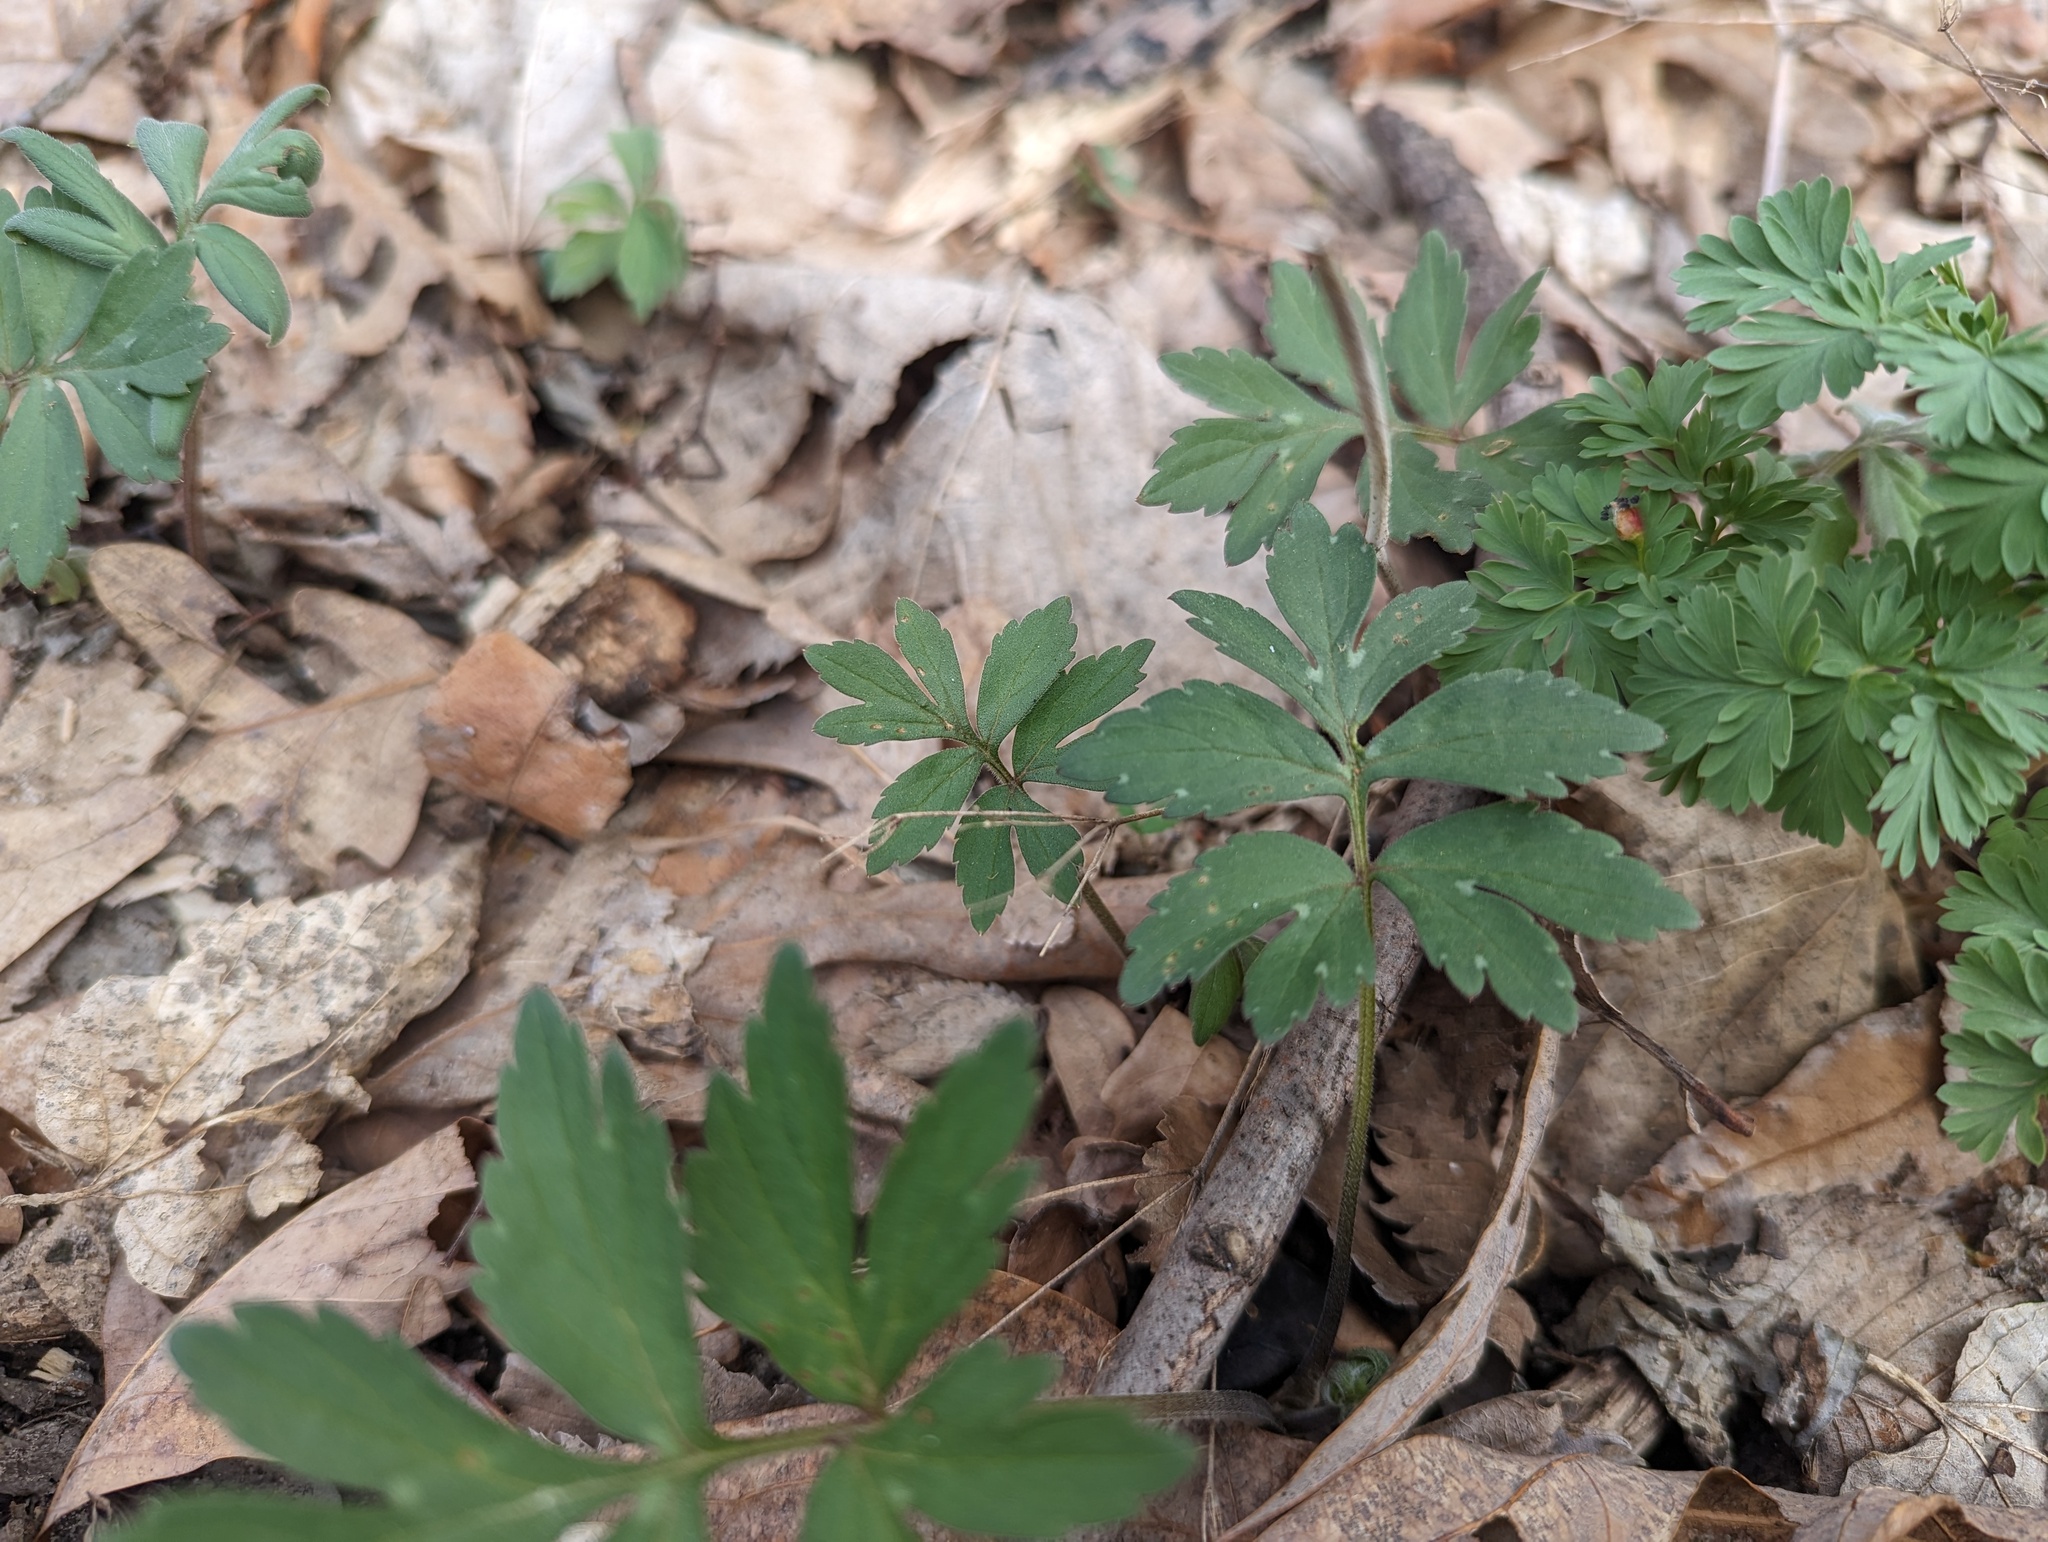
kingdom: Plantae
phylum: Tracheophyta
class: Magnoliopsida
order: Boraginales
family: Hydrophyllaceae
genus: Hydrophyllum
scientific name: Hydrophyllum virginianum
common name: Virginia waterleaf
